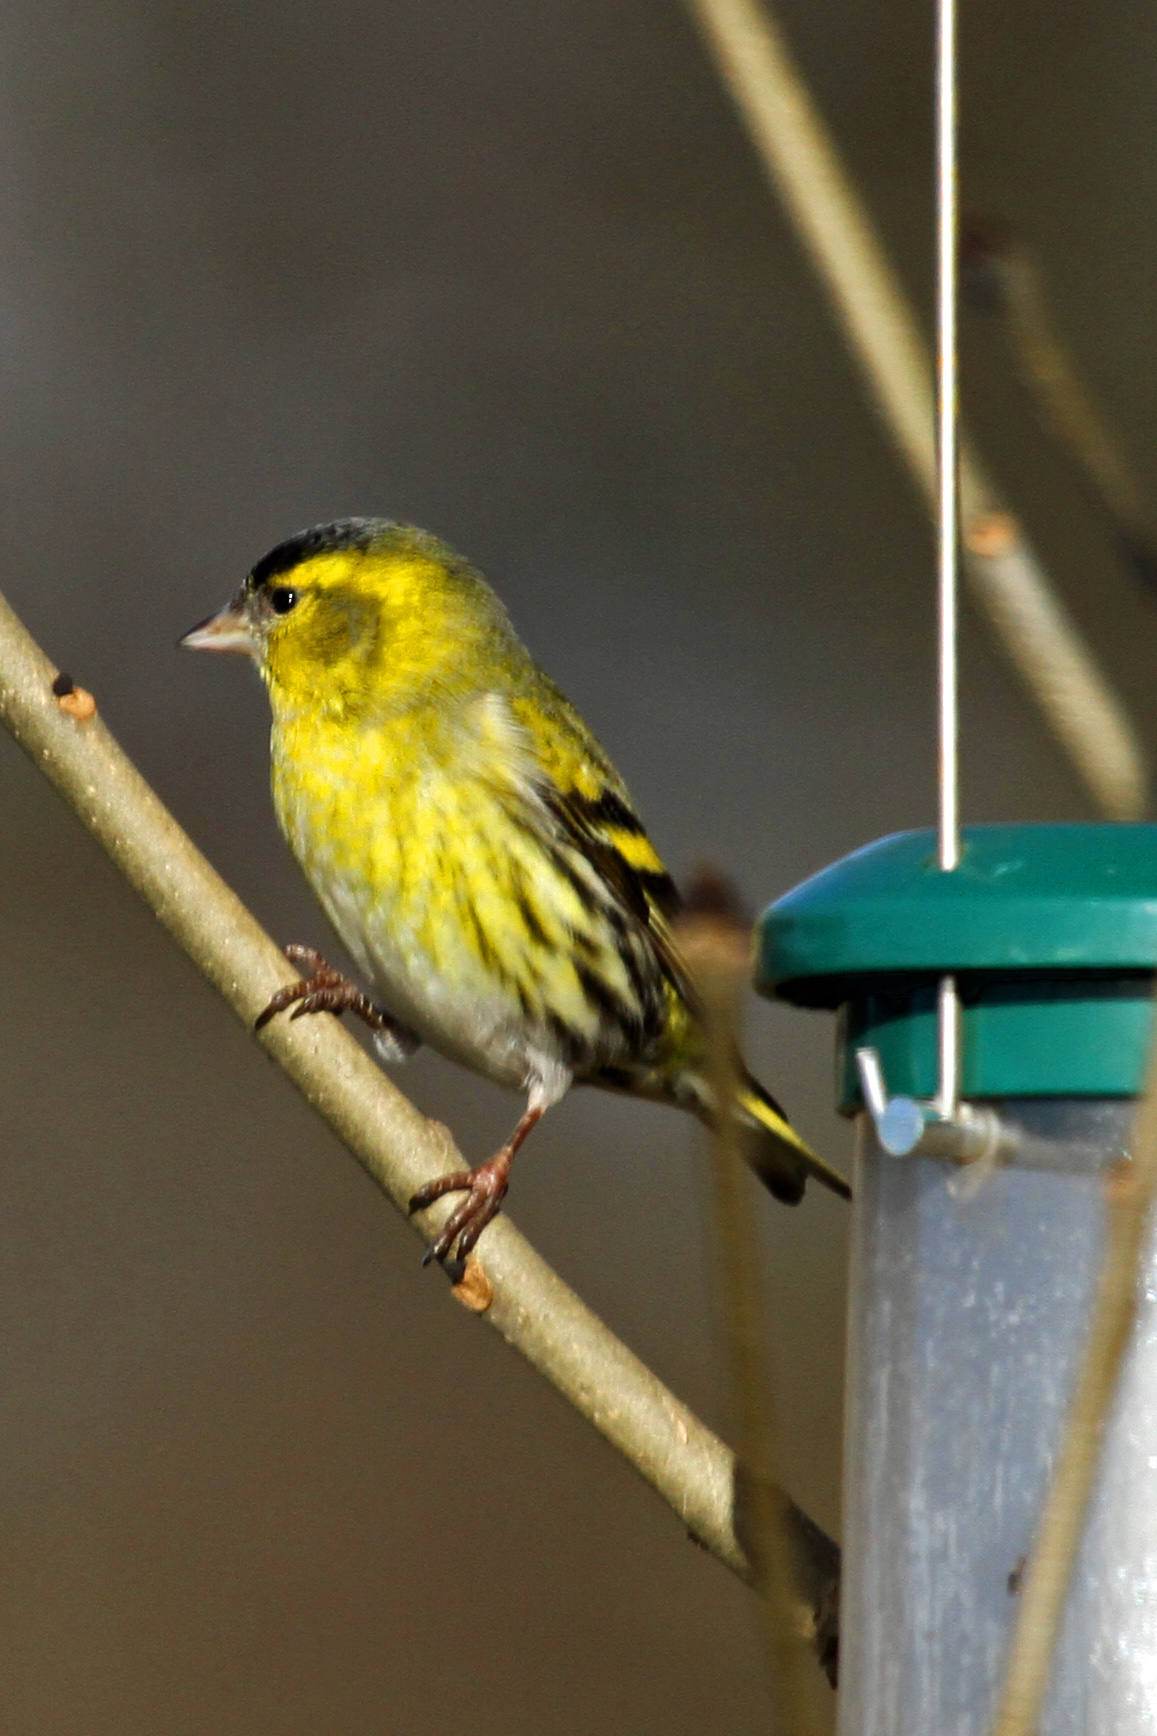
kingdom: Animalia
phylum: Chordata
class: Aves
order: Passeriformes
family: Fringillidae
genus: Spinus
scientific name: Spinus spinus
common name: Eurasian siskin
